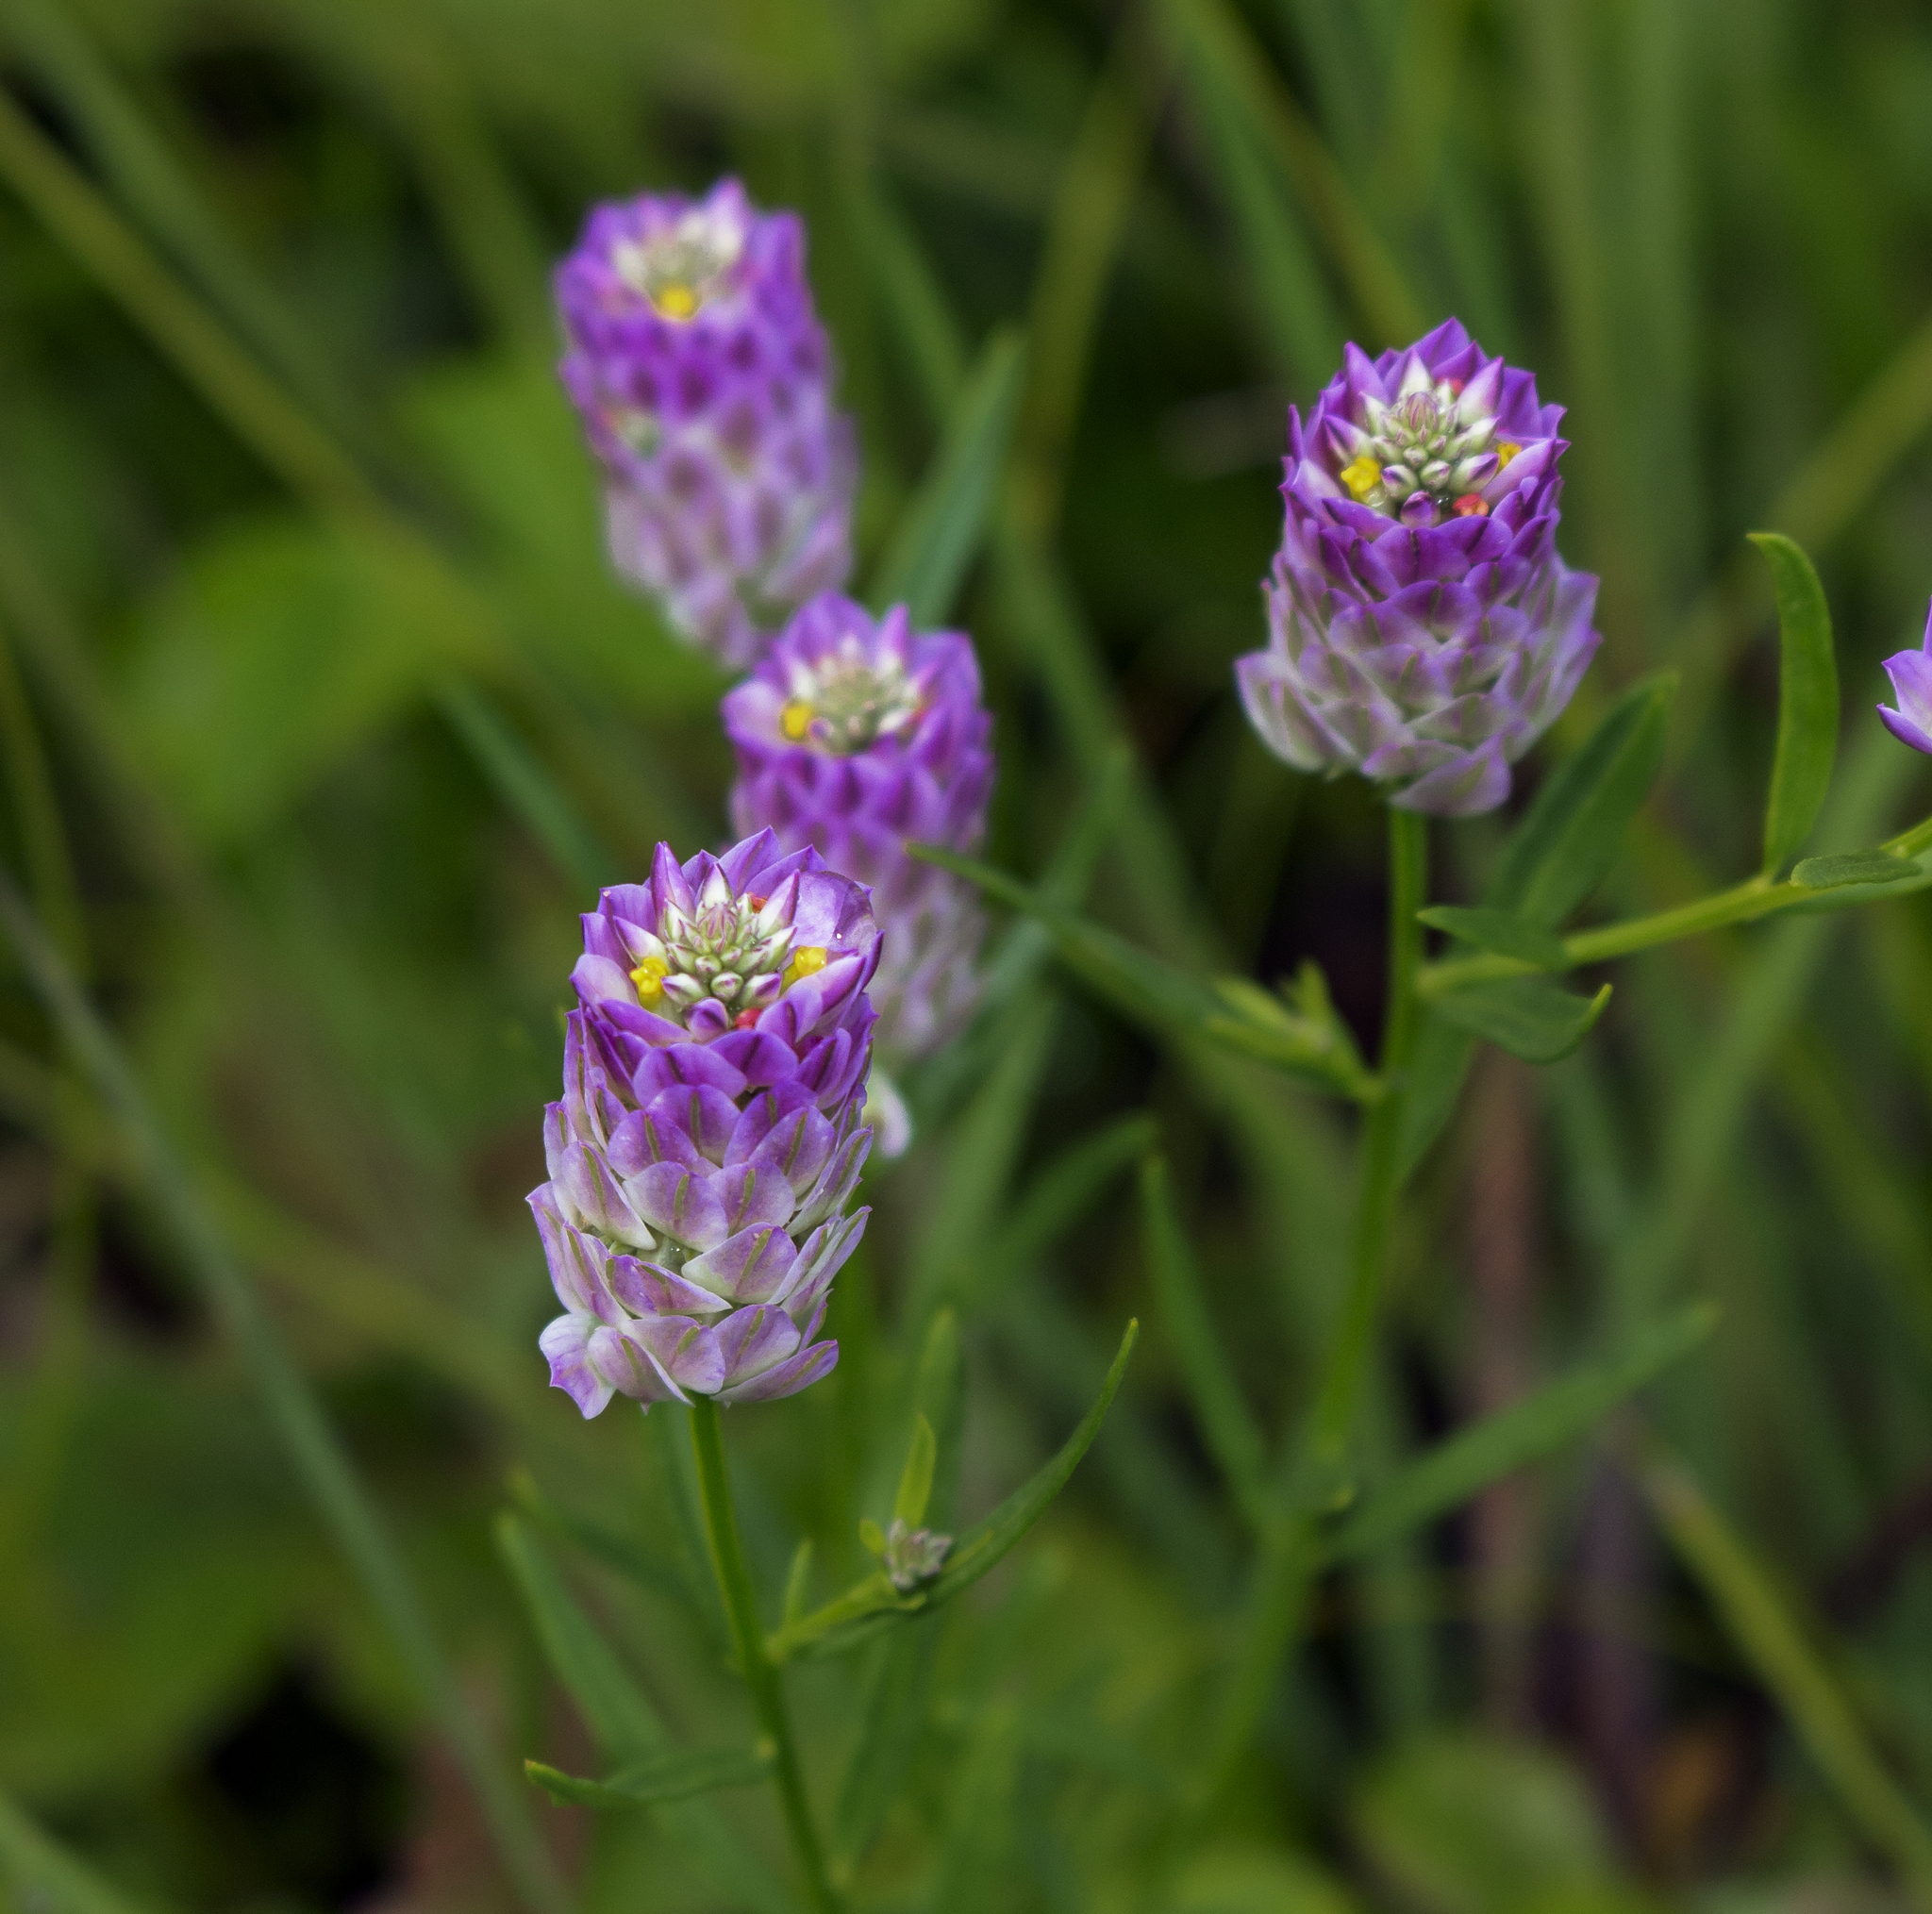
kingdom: Plantae
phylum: Tracheophyta
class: Magnoliopsida
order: Fabales
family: Polygalaceae
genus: Polygala
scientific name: Polygala sanguinea
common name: Blood milkwort
